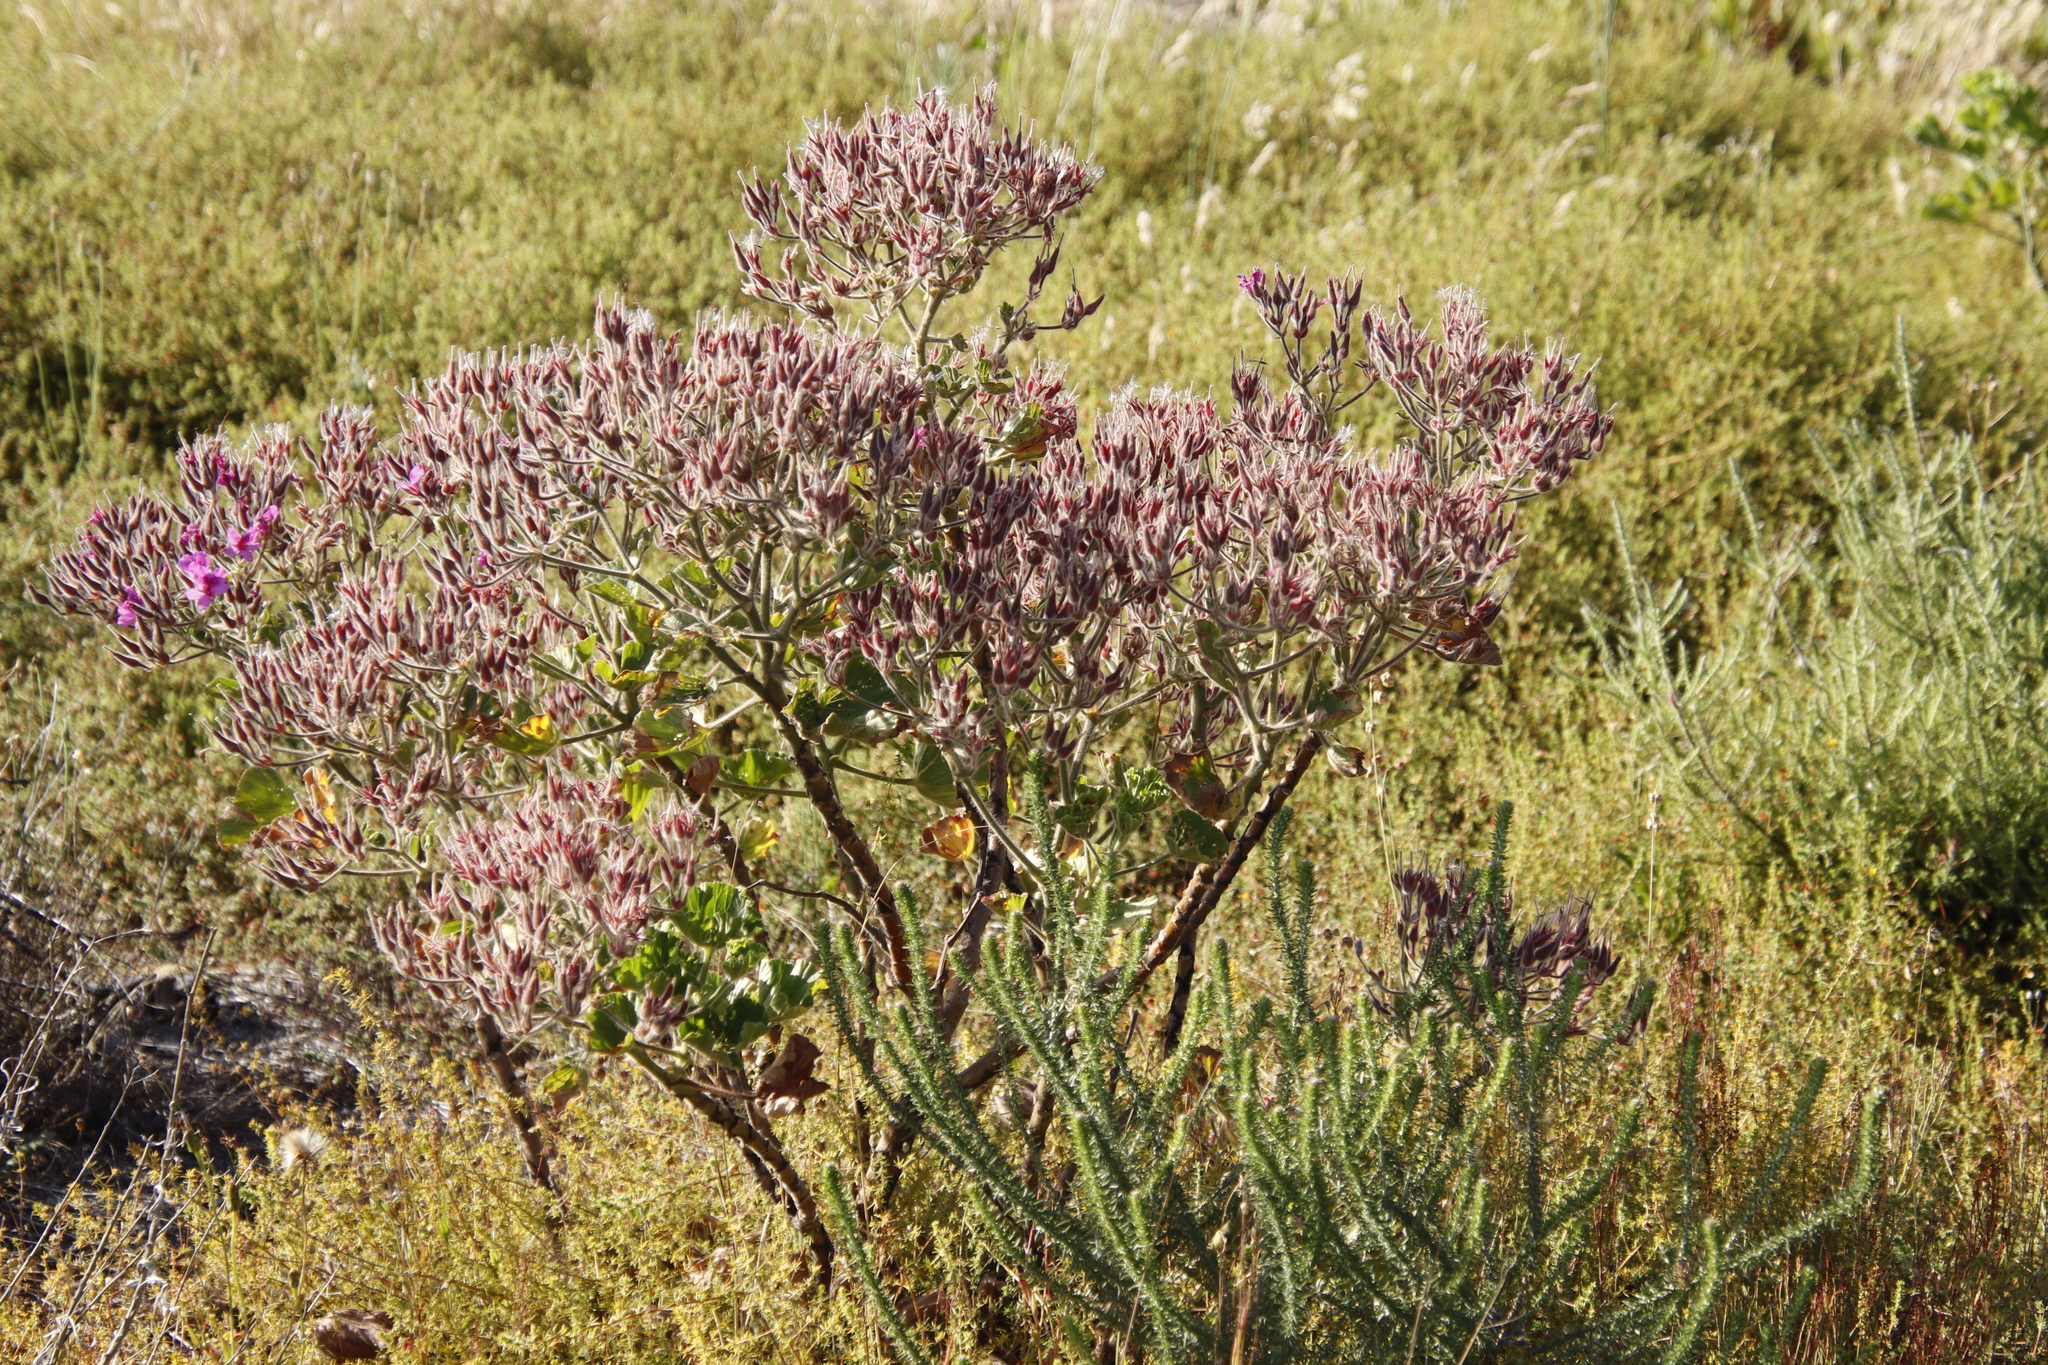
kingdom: Plantae
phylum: Tracheophyta
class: Magnoliopsida
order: Geraniales
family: Geraniaceae
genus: Pelargonium
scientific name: Pelargonium cucullatum
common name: Tree pelargonium
